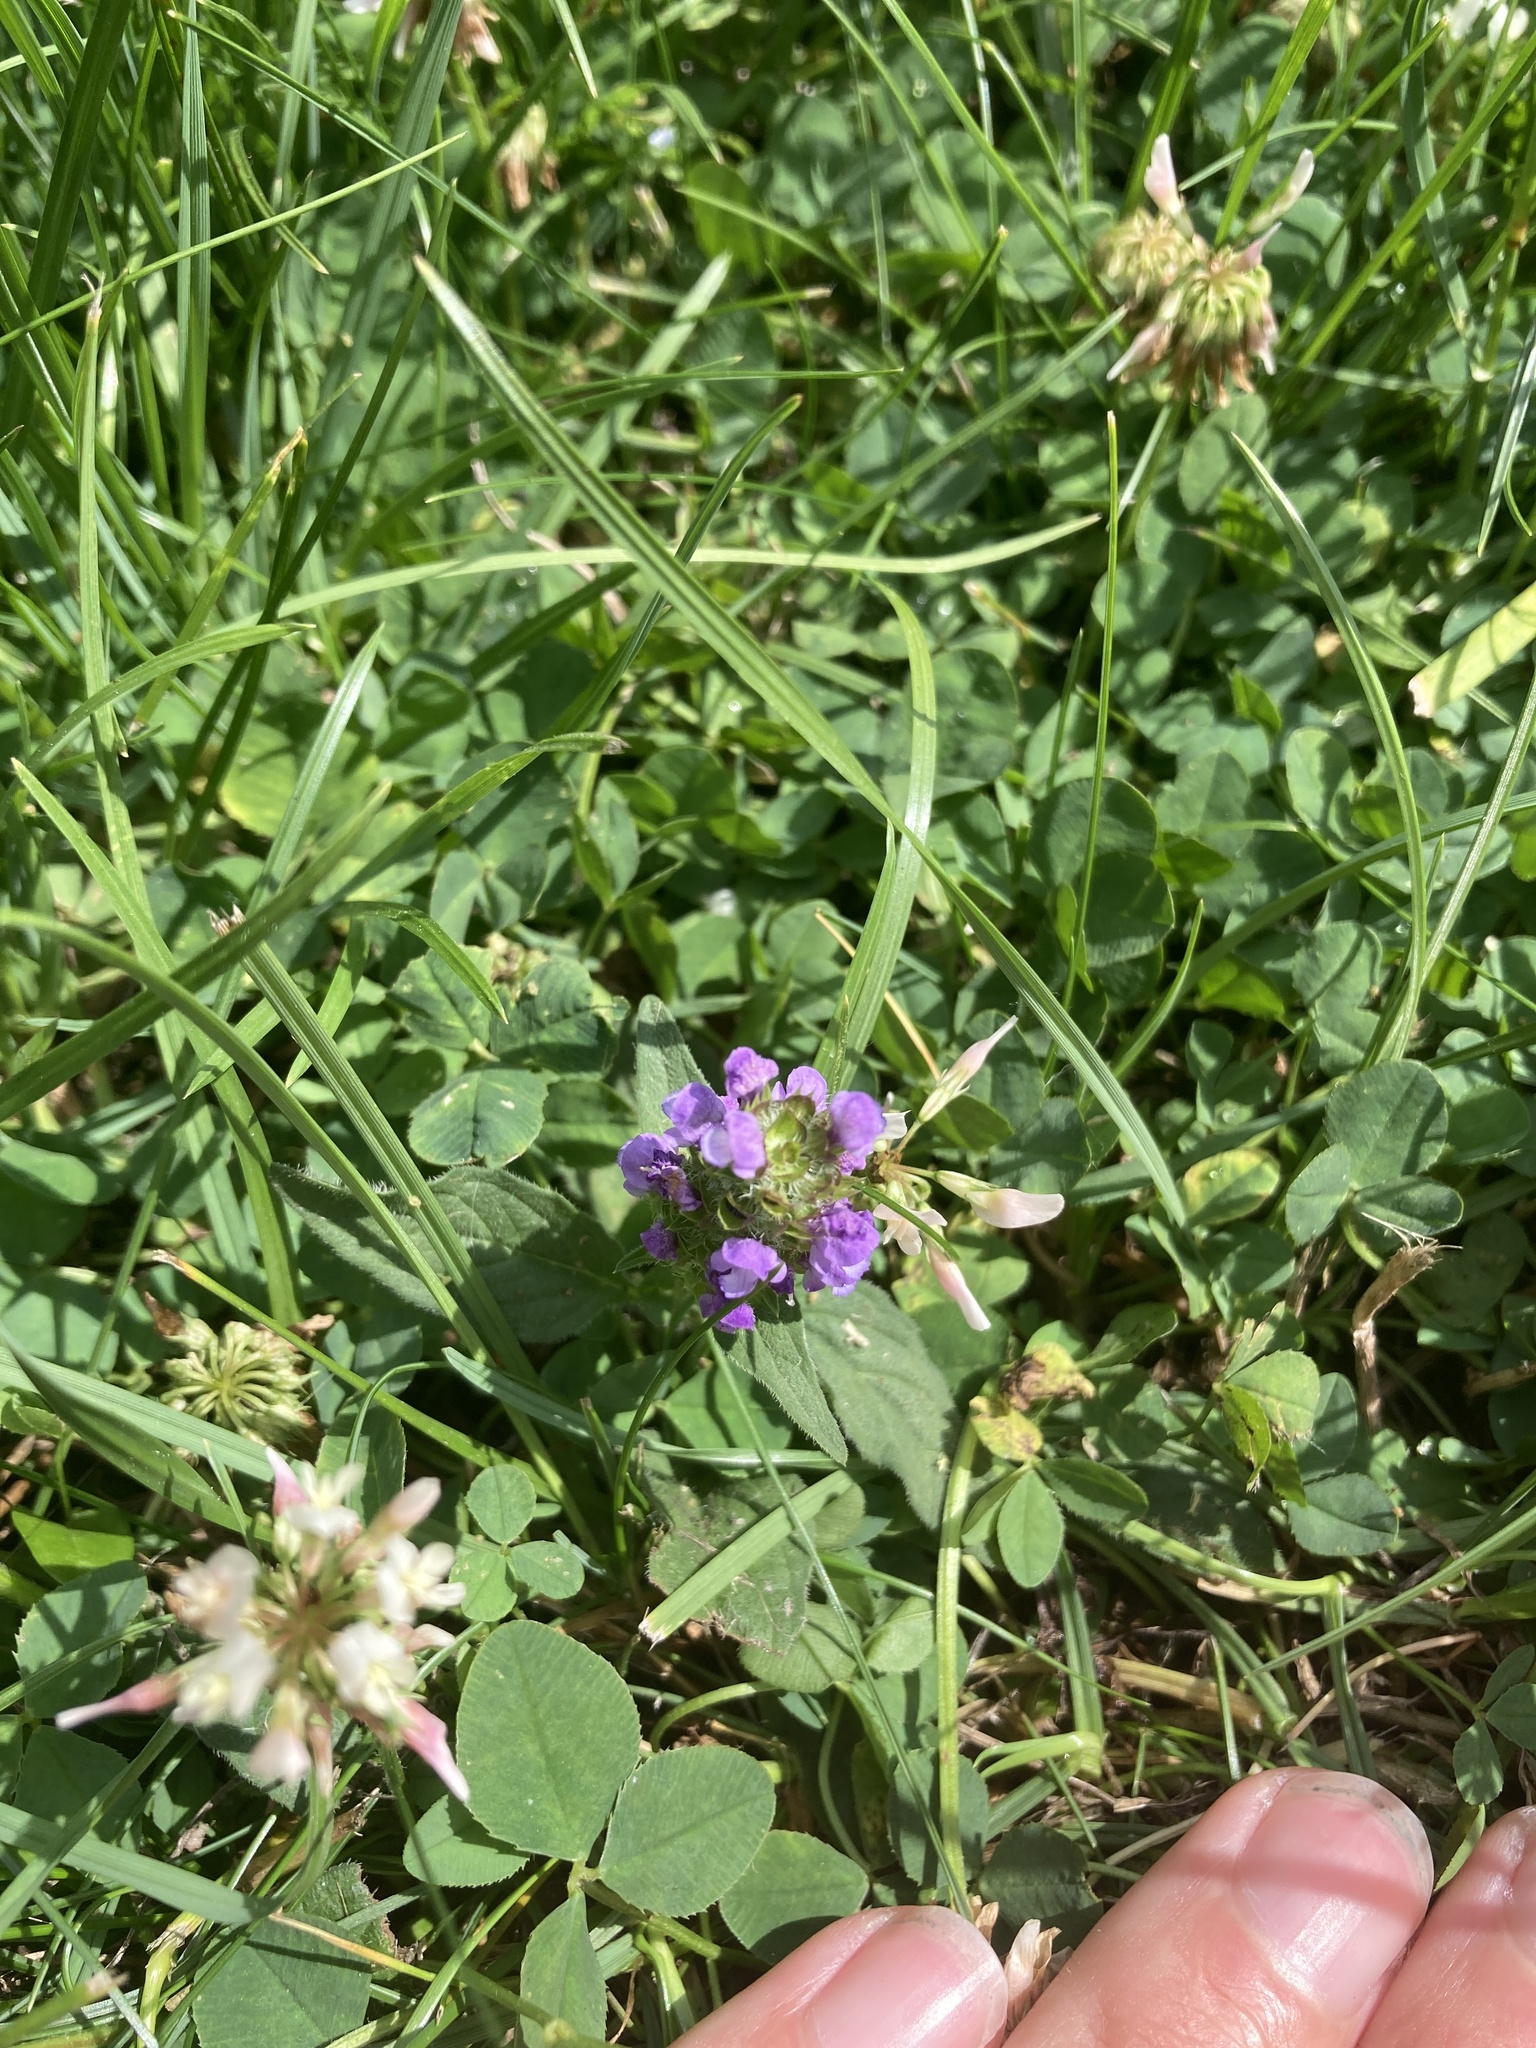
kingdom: Plantae
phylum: Tracheophyta
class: Magnoliopsida
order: Lamiales
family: Lamiaceae
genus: Prunella
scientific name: Prunella vulgaris
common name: Heal-all
